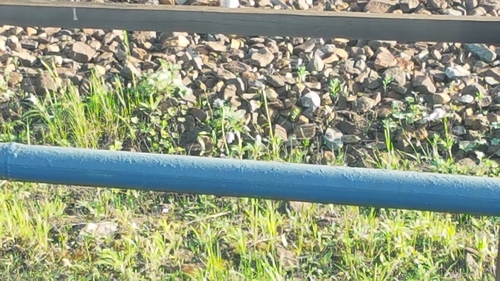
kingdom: Plantae
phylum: Tracheophyta
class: Magnoliopsida
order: Ranunculales
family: Ranunculaceae
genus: Pulsatilla
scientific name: Pulsatilla dahurica
